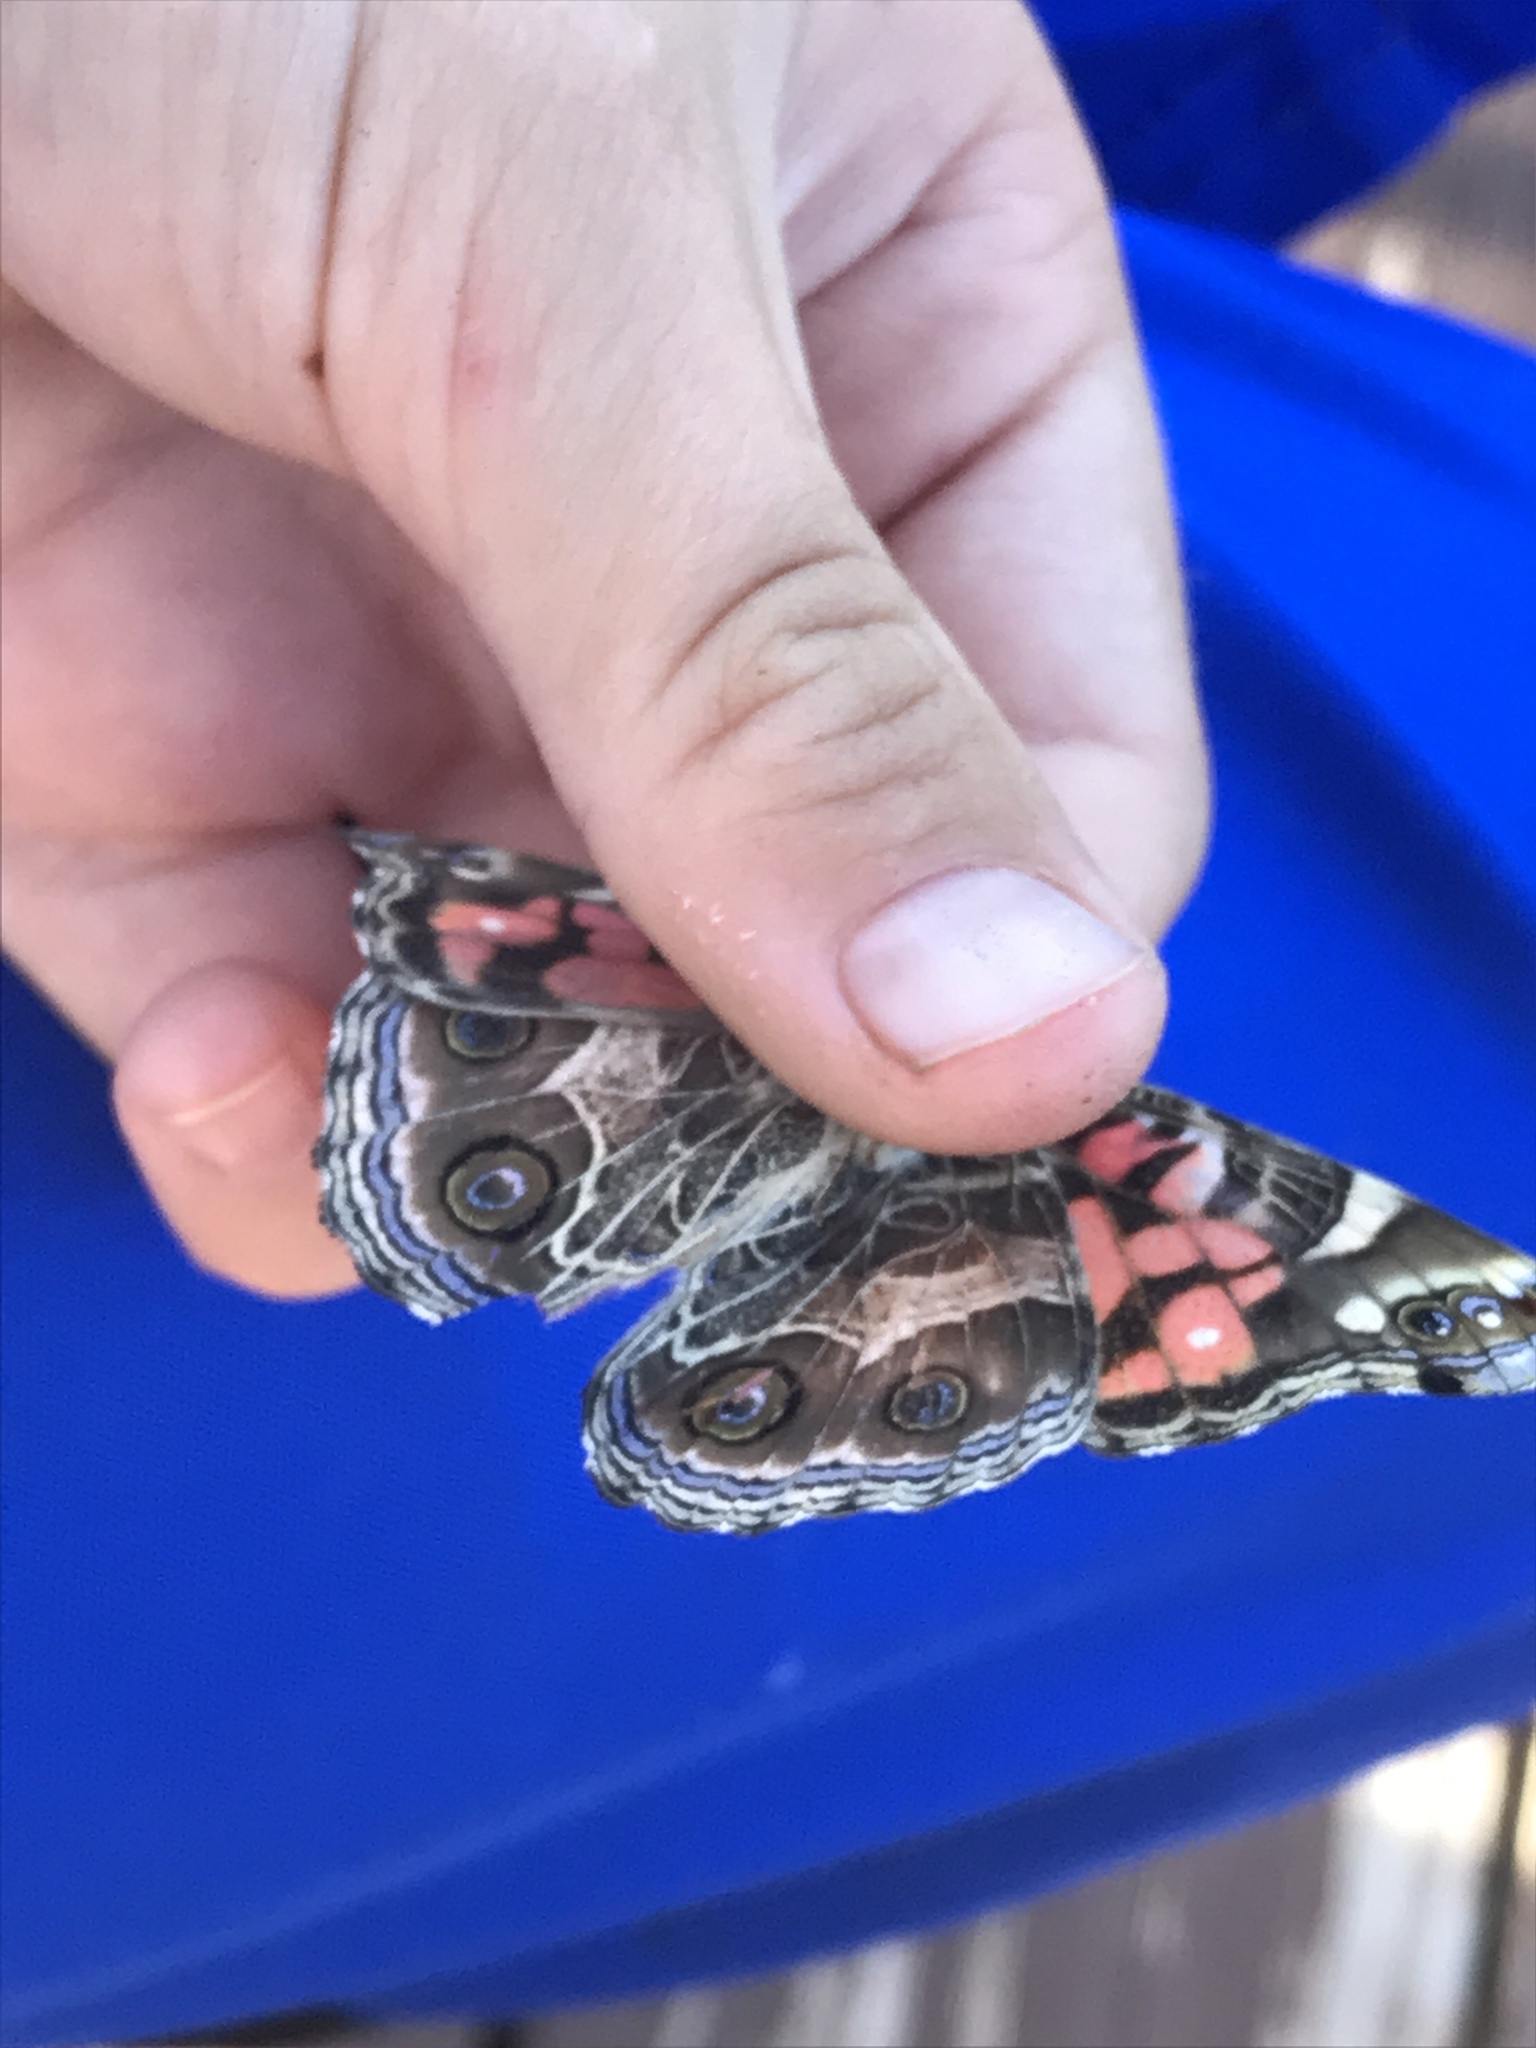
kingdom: Animalia
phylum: Arthropoda
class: Insecta
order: Lepidoptera
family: Nymphalidae
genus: Vanessa
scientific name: Vanessa virginiensis
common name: American lady
